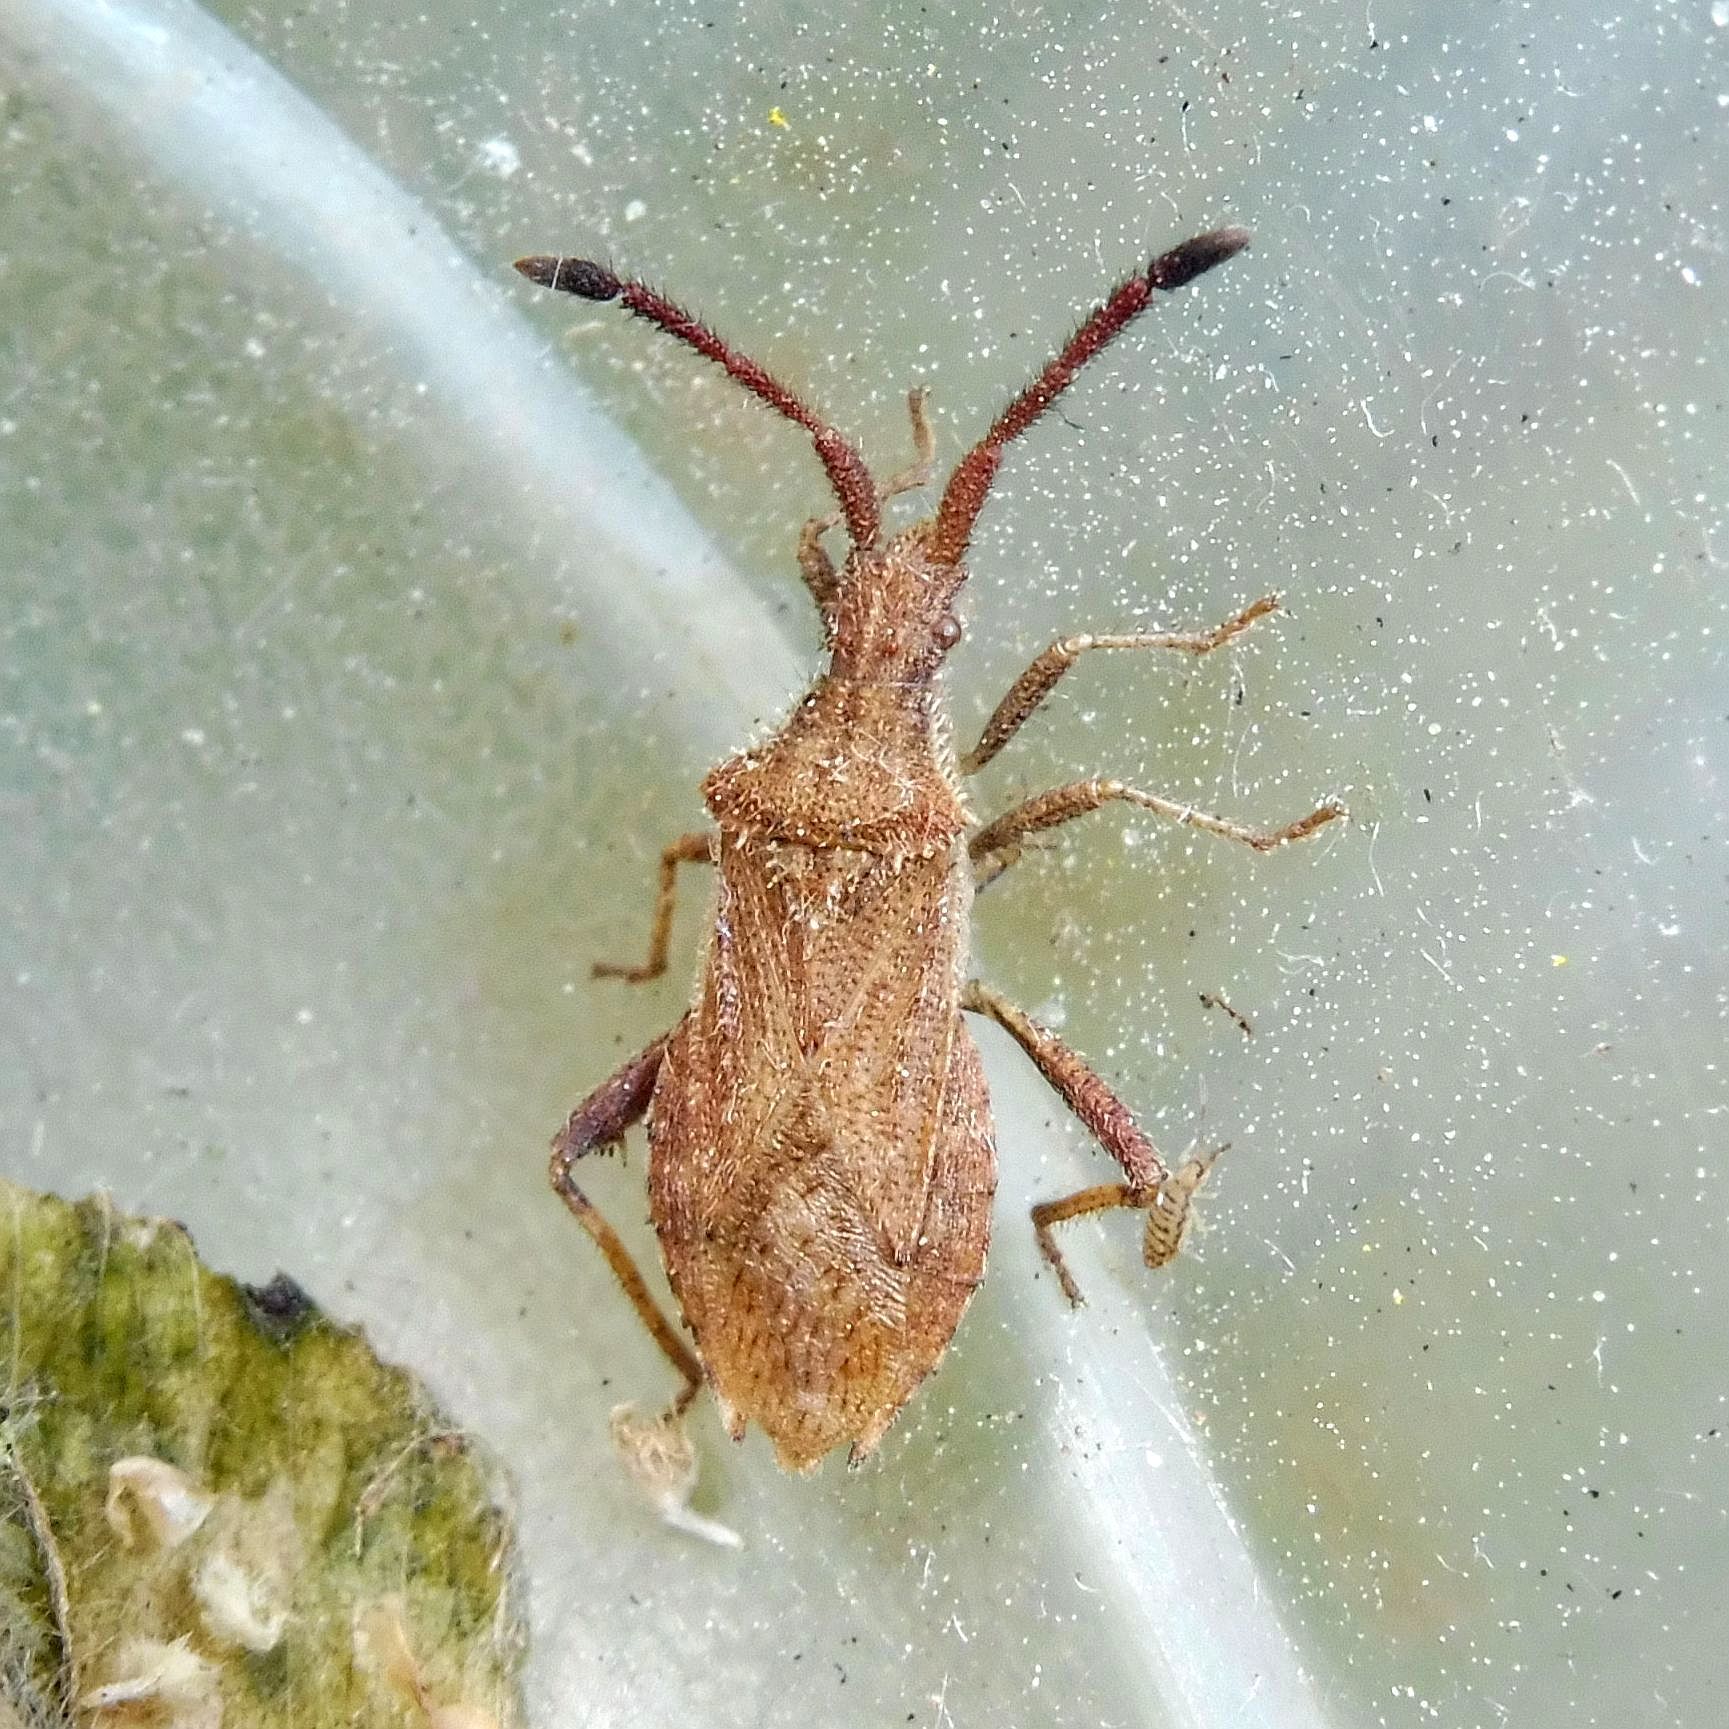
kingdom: Animalia
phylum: Arthropoda
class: Insecta
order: Hemiptera
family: Coreidae
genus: Coriomeris
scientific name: Coriomeris denticulatus
